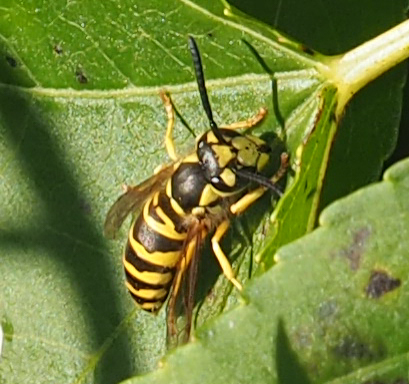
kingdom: Animalia
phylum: Arthropoda
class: Insecta
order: Hymenoptera
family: Vespidae
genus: Vespula
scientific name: Vespula maculifrons
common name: Eastern yellowjacket
